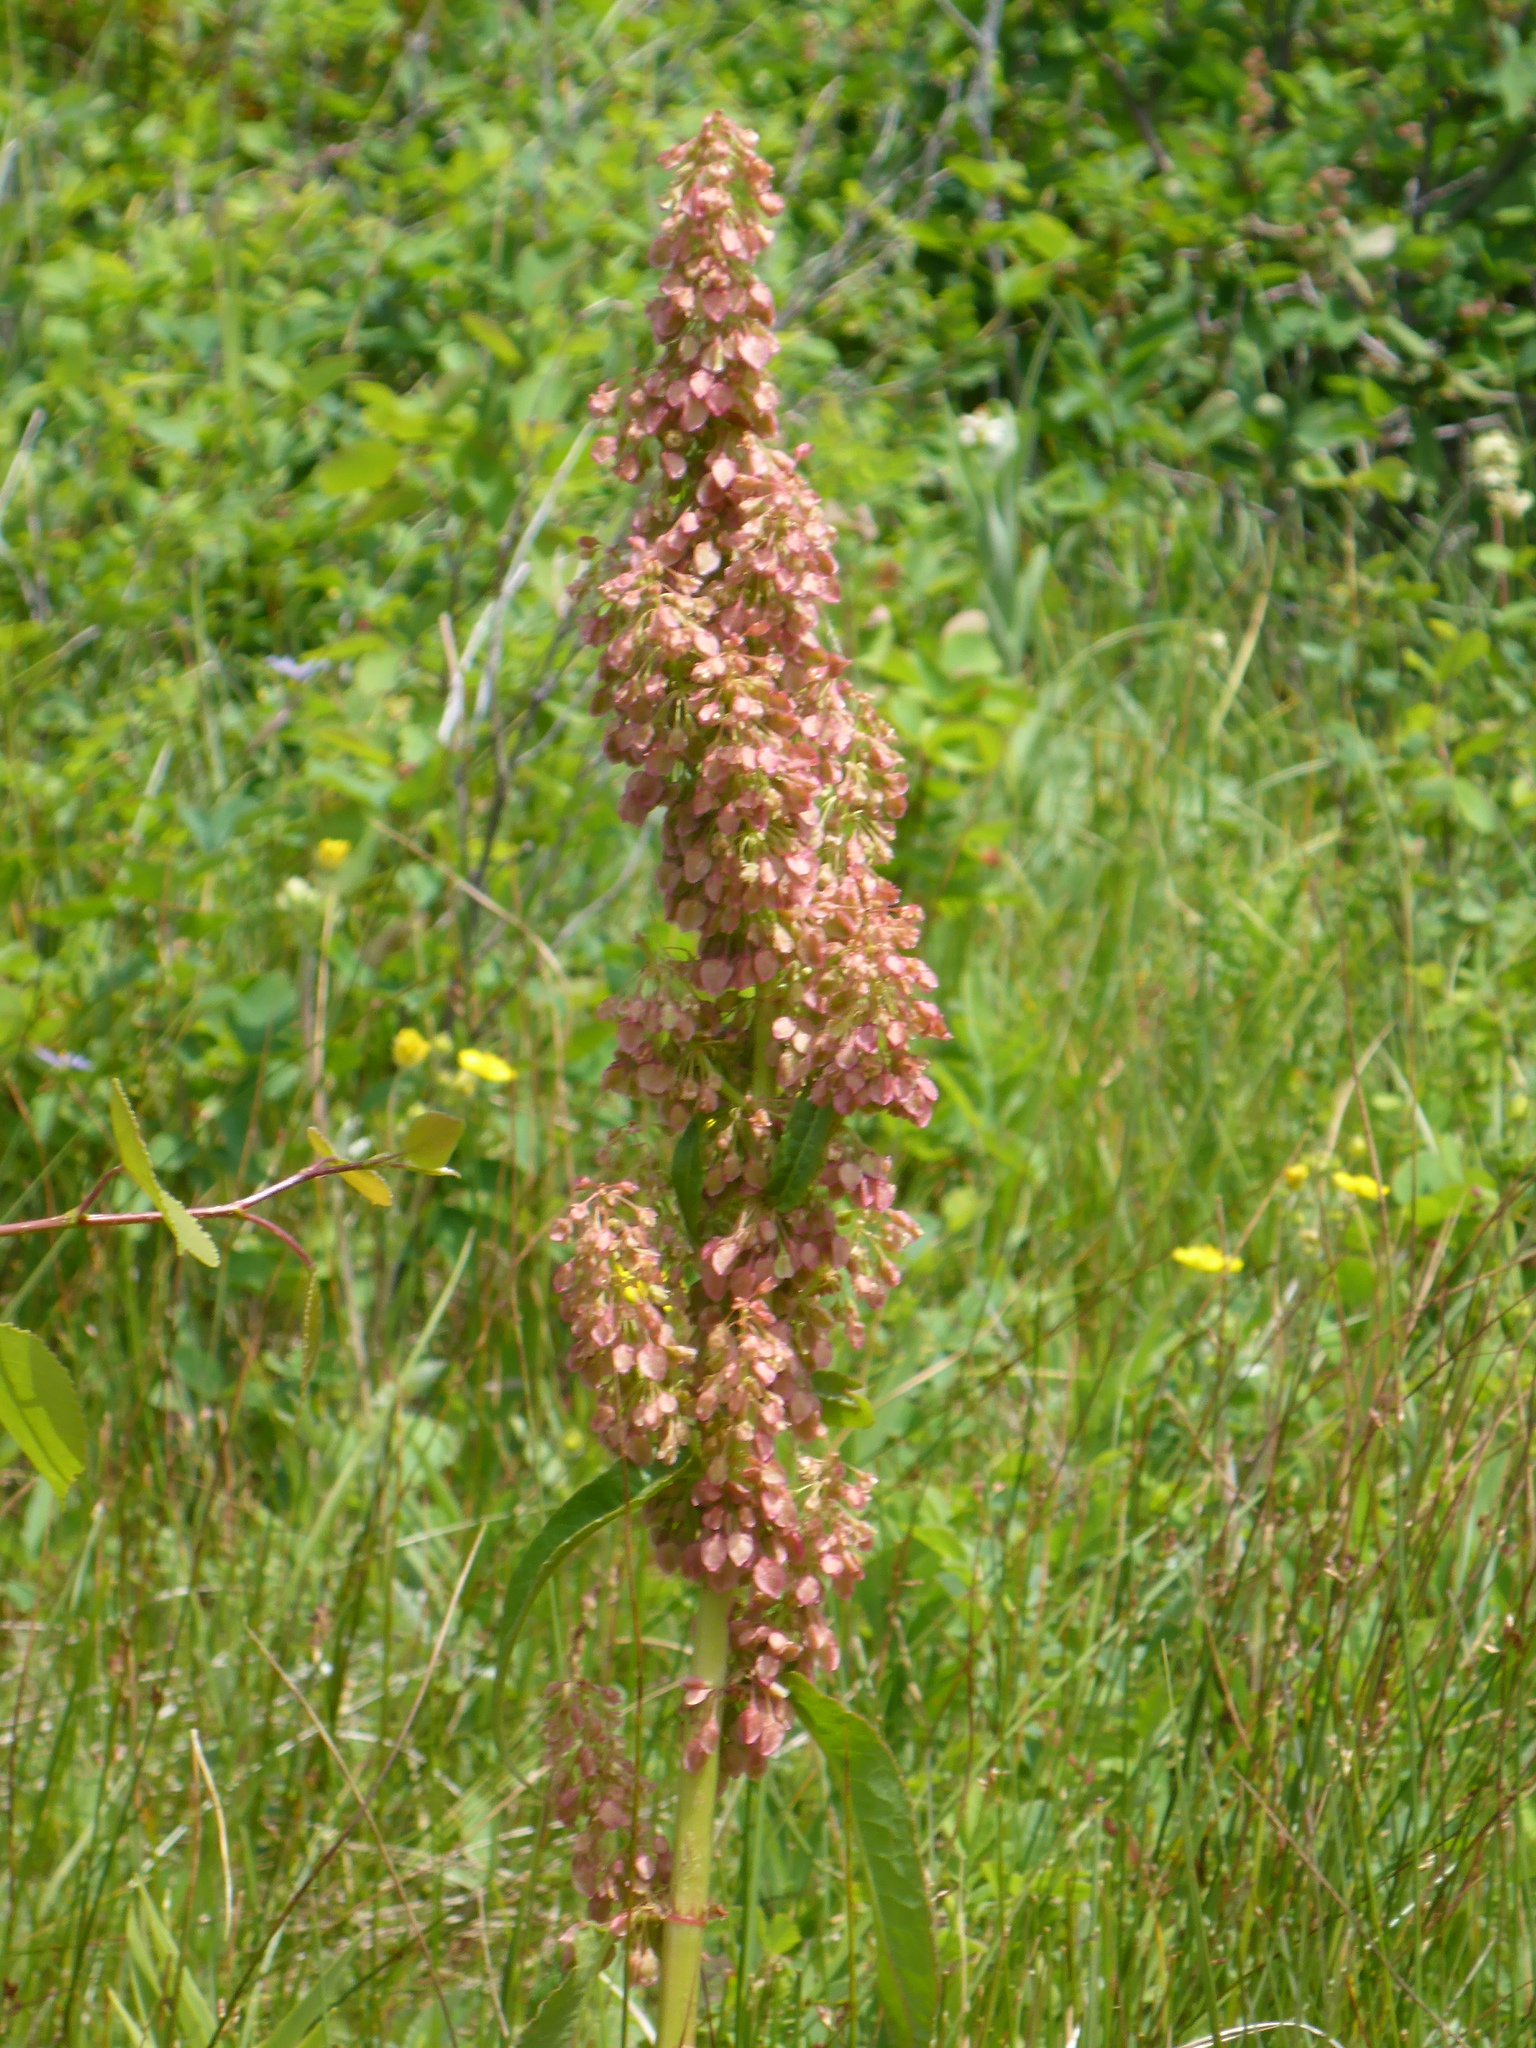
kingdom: Plantae
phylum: Tracheophyta
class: Magnoliopsida
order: Caryophyllales
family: Polygonaceae
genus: Rumex
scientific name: Rumex occidentalis
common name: Western dock
